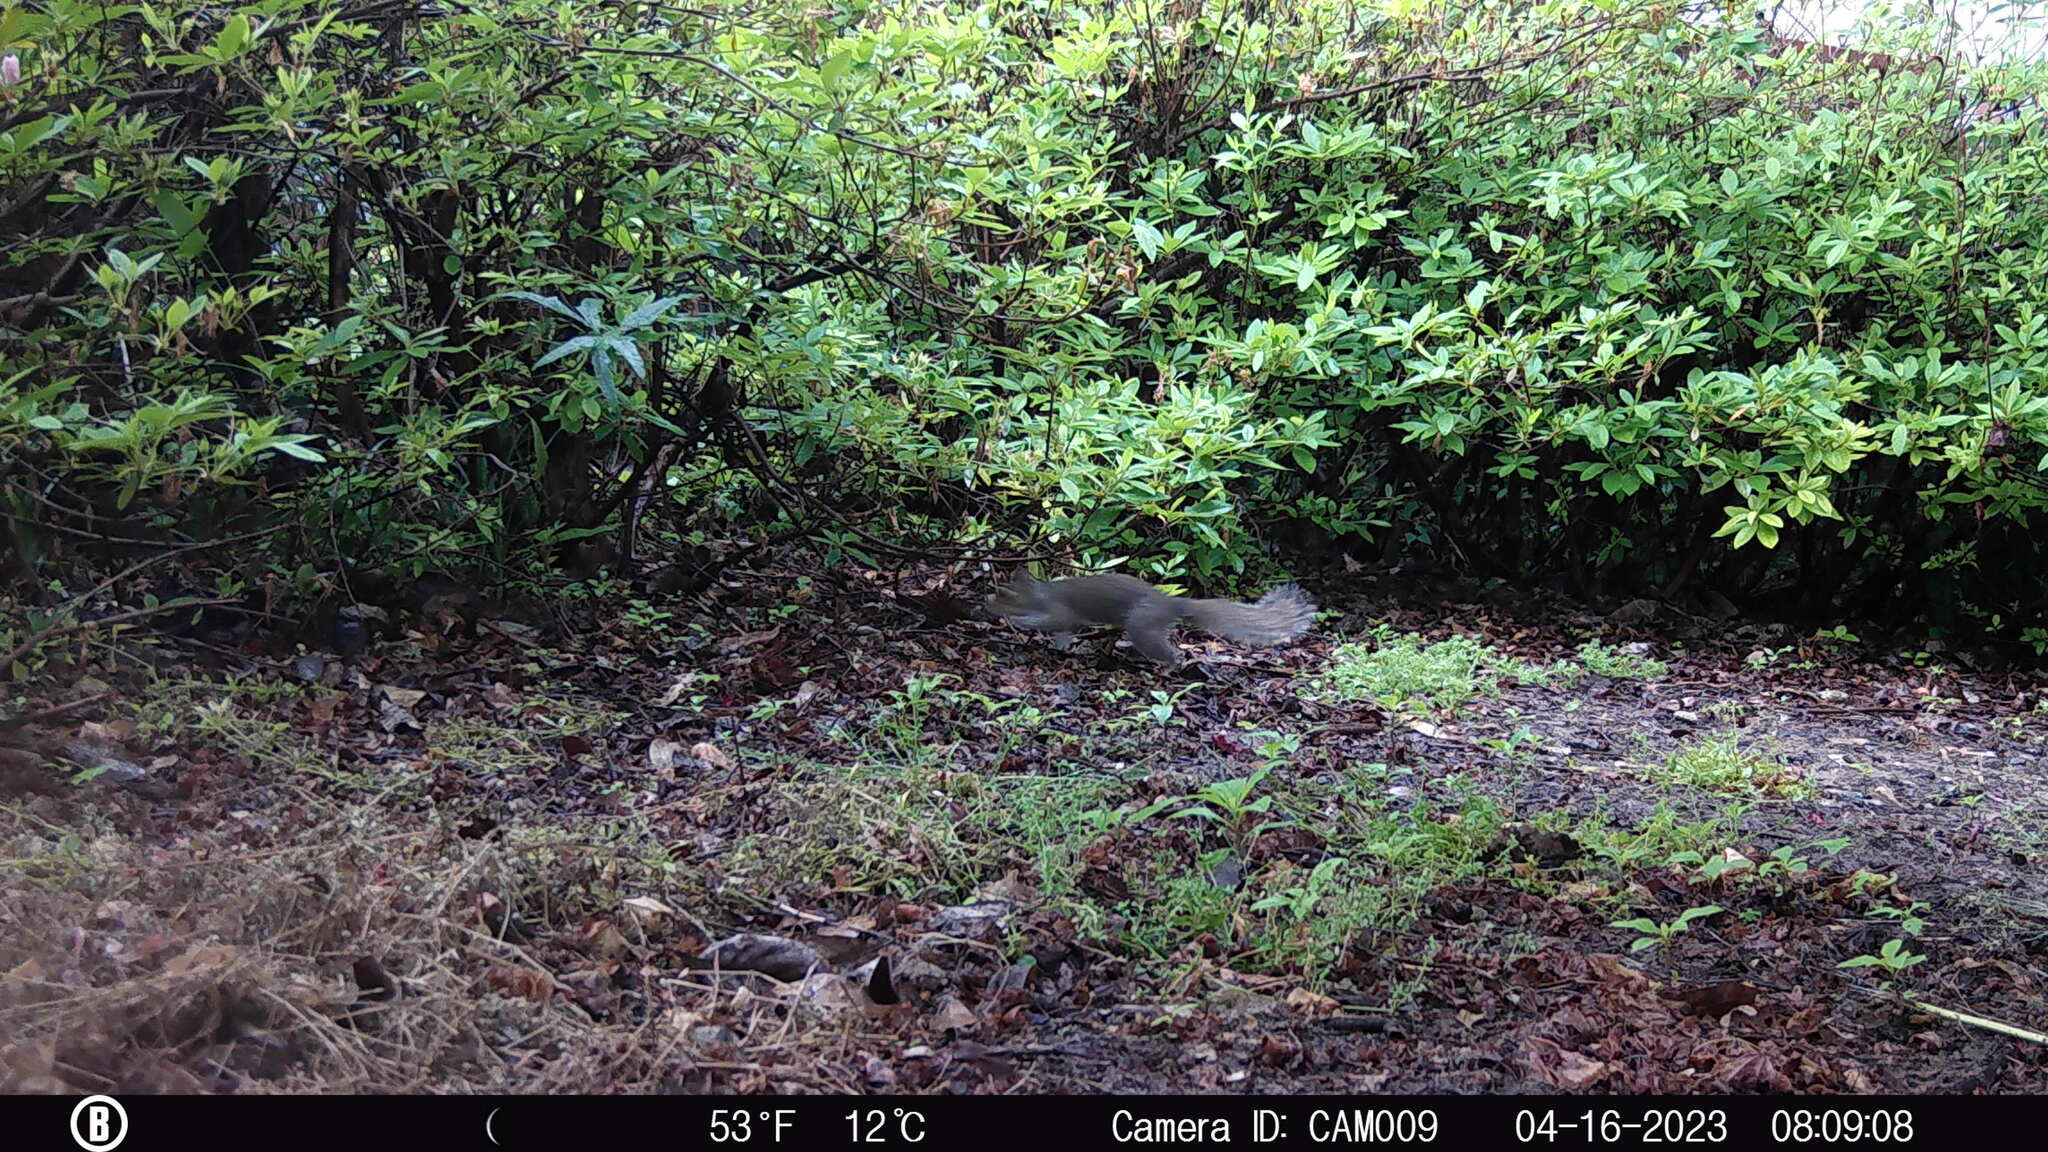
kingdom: Animalia
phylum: Chordata
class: Mammalia
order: Rodentia
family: Sciuridae
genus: Sciurus
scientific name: Sciurus carolinensis
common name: Eastern gray squirrel
